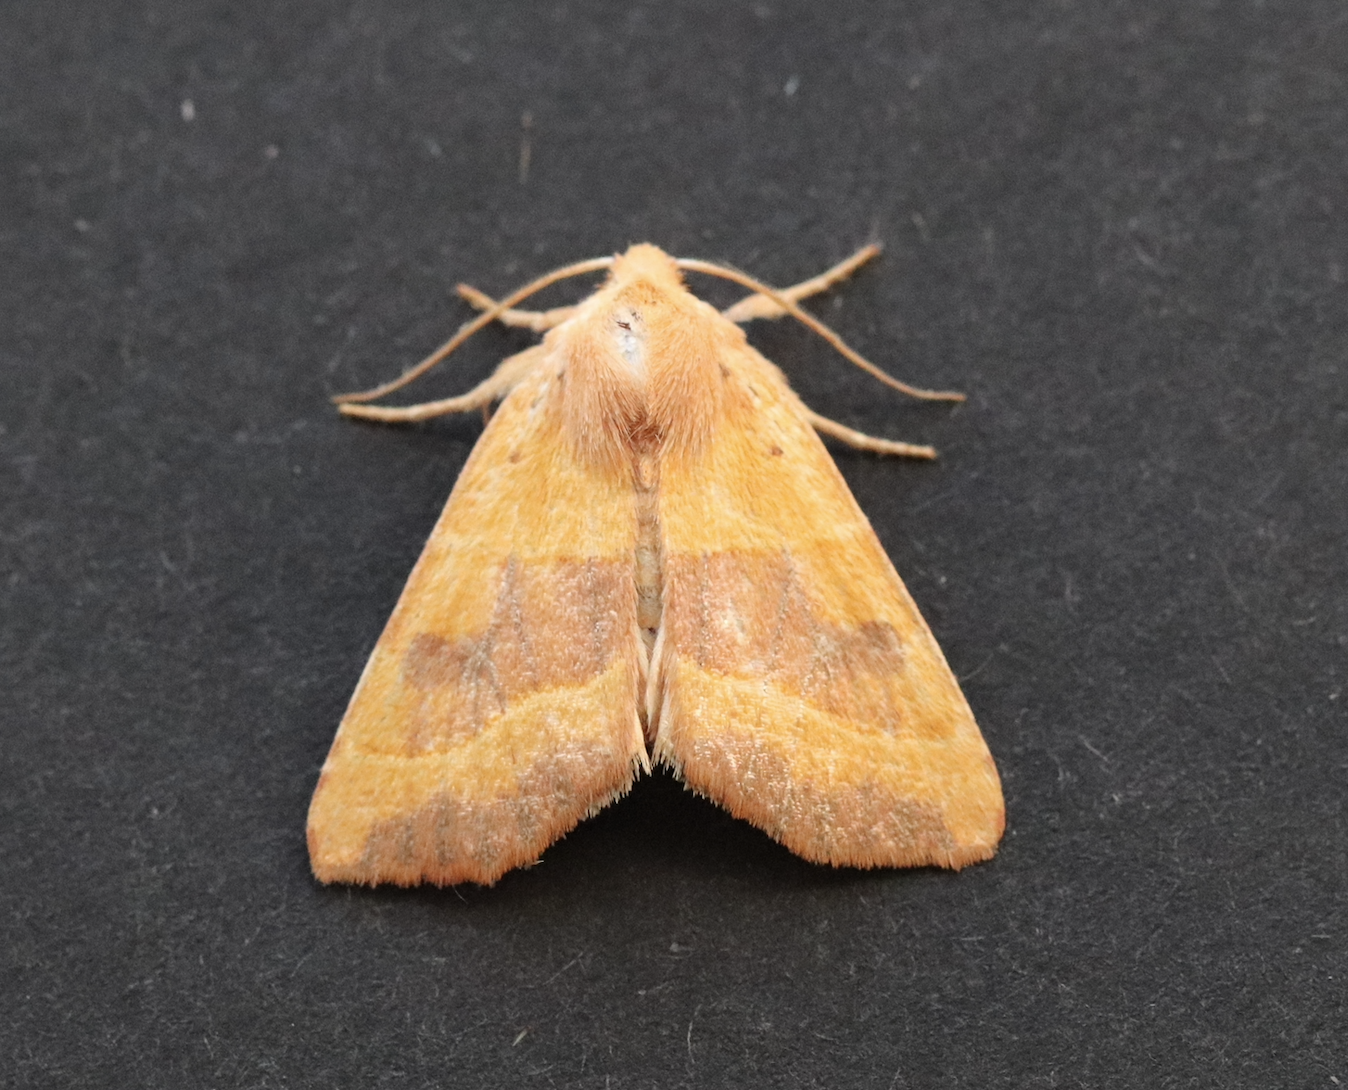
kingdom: Animalia
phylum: Arthropoda
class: Insecta
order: Lepidoptera
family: Noctuidae
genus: Atethmia
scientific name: Atethmia centrago
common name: Centre-barred sallow
